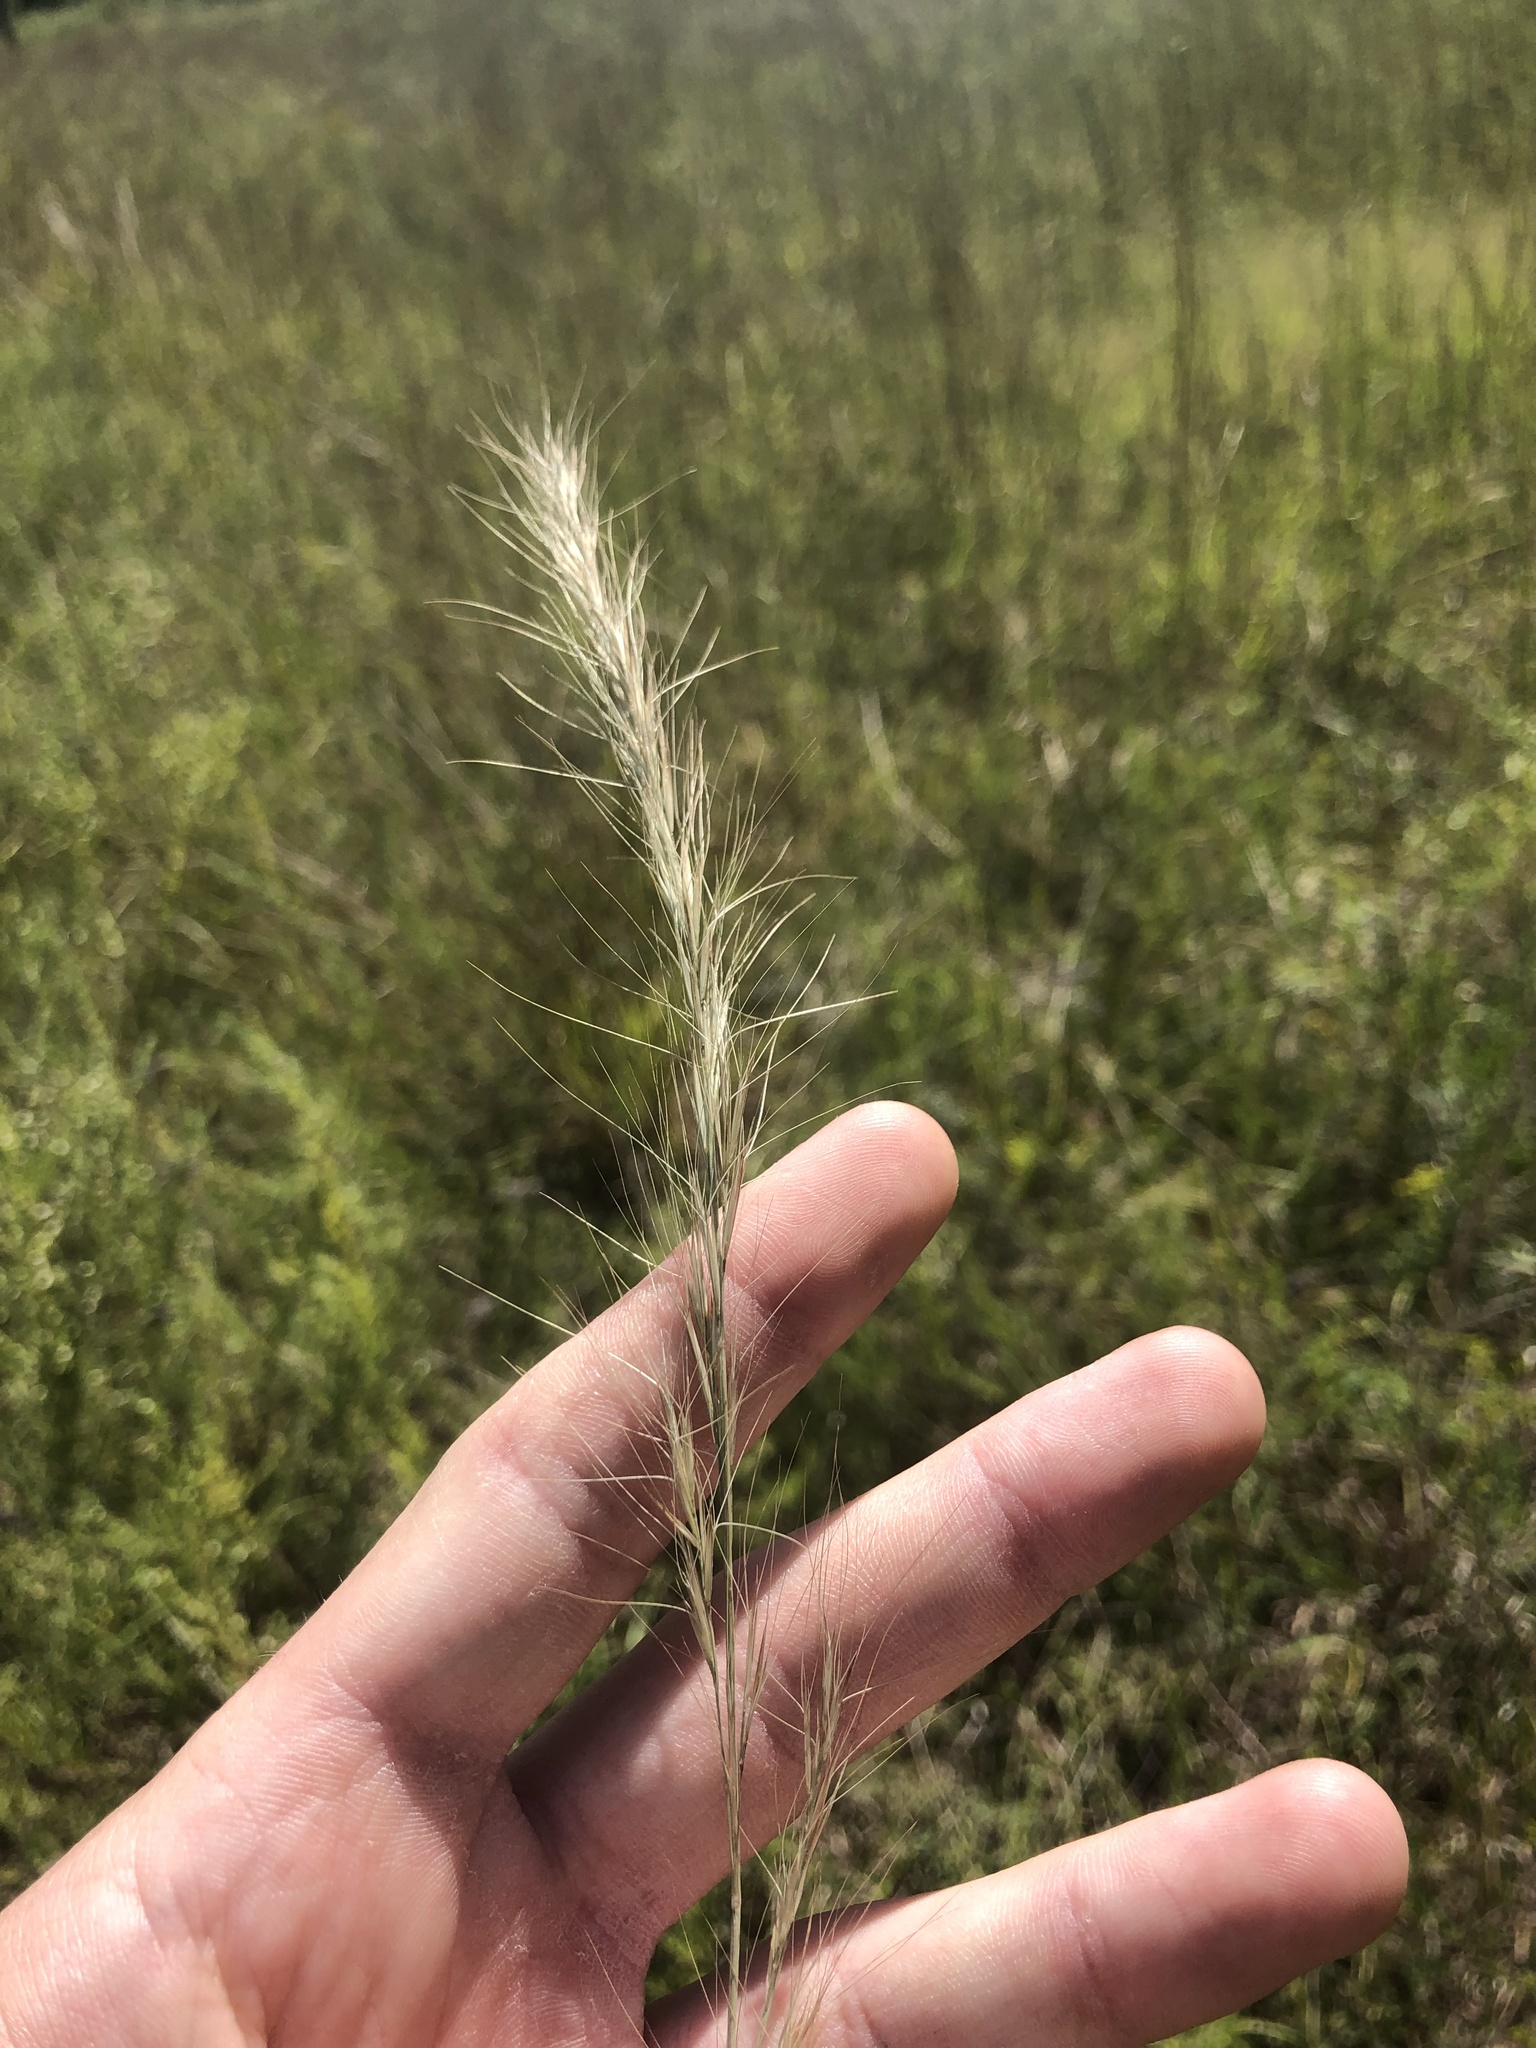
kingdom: Plantae
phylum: Tracheophyta
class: Liliopsida
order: Poales
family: Poaceae
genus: Aristida
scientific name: Aristida purpurascens
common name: Arrow-feather
